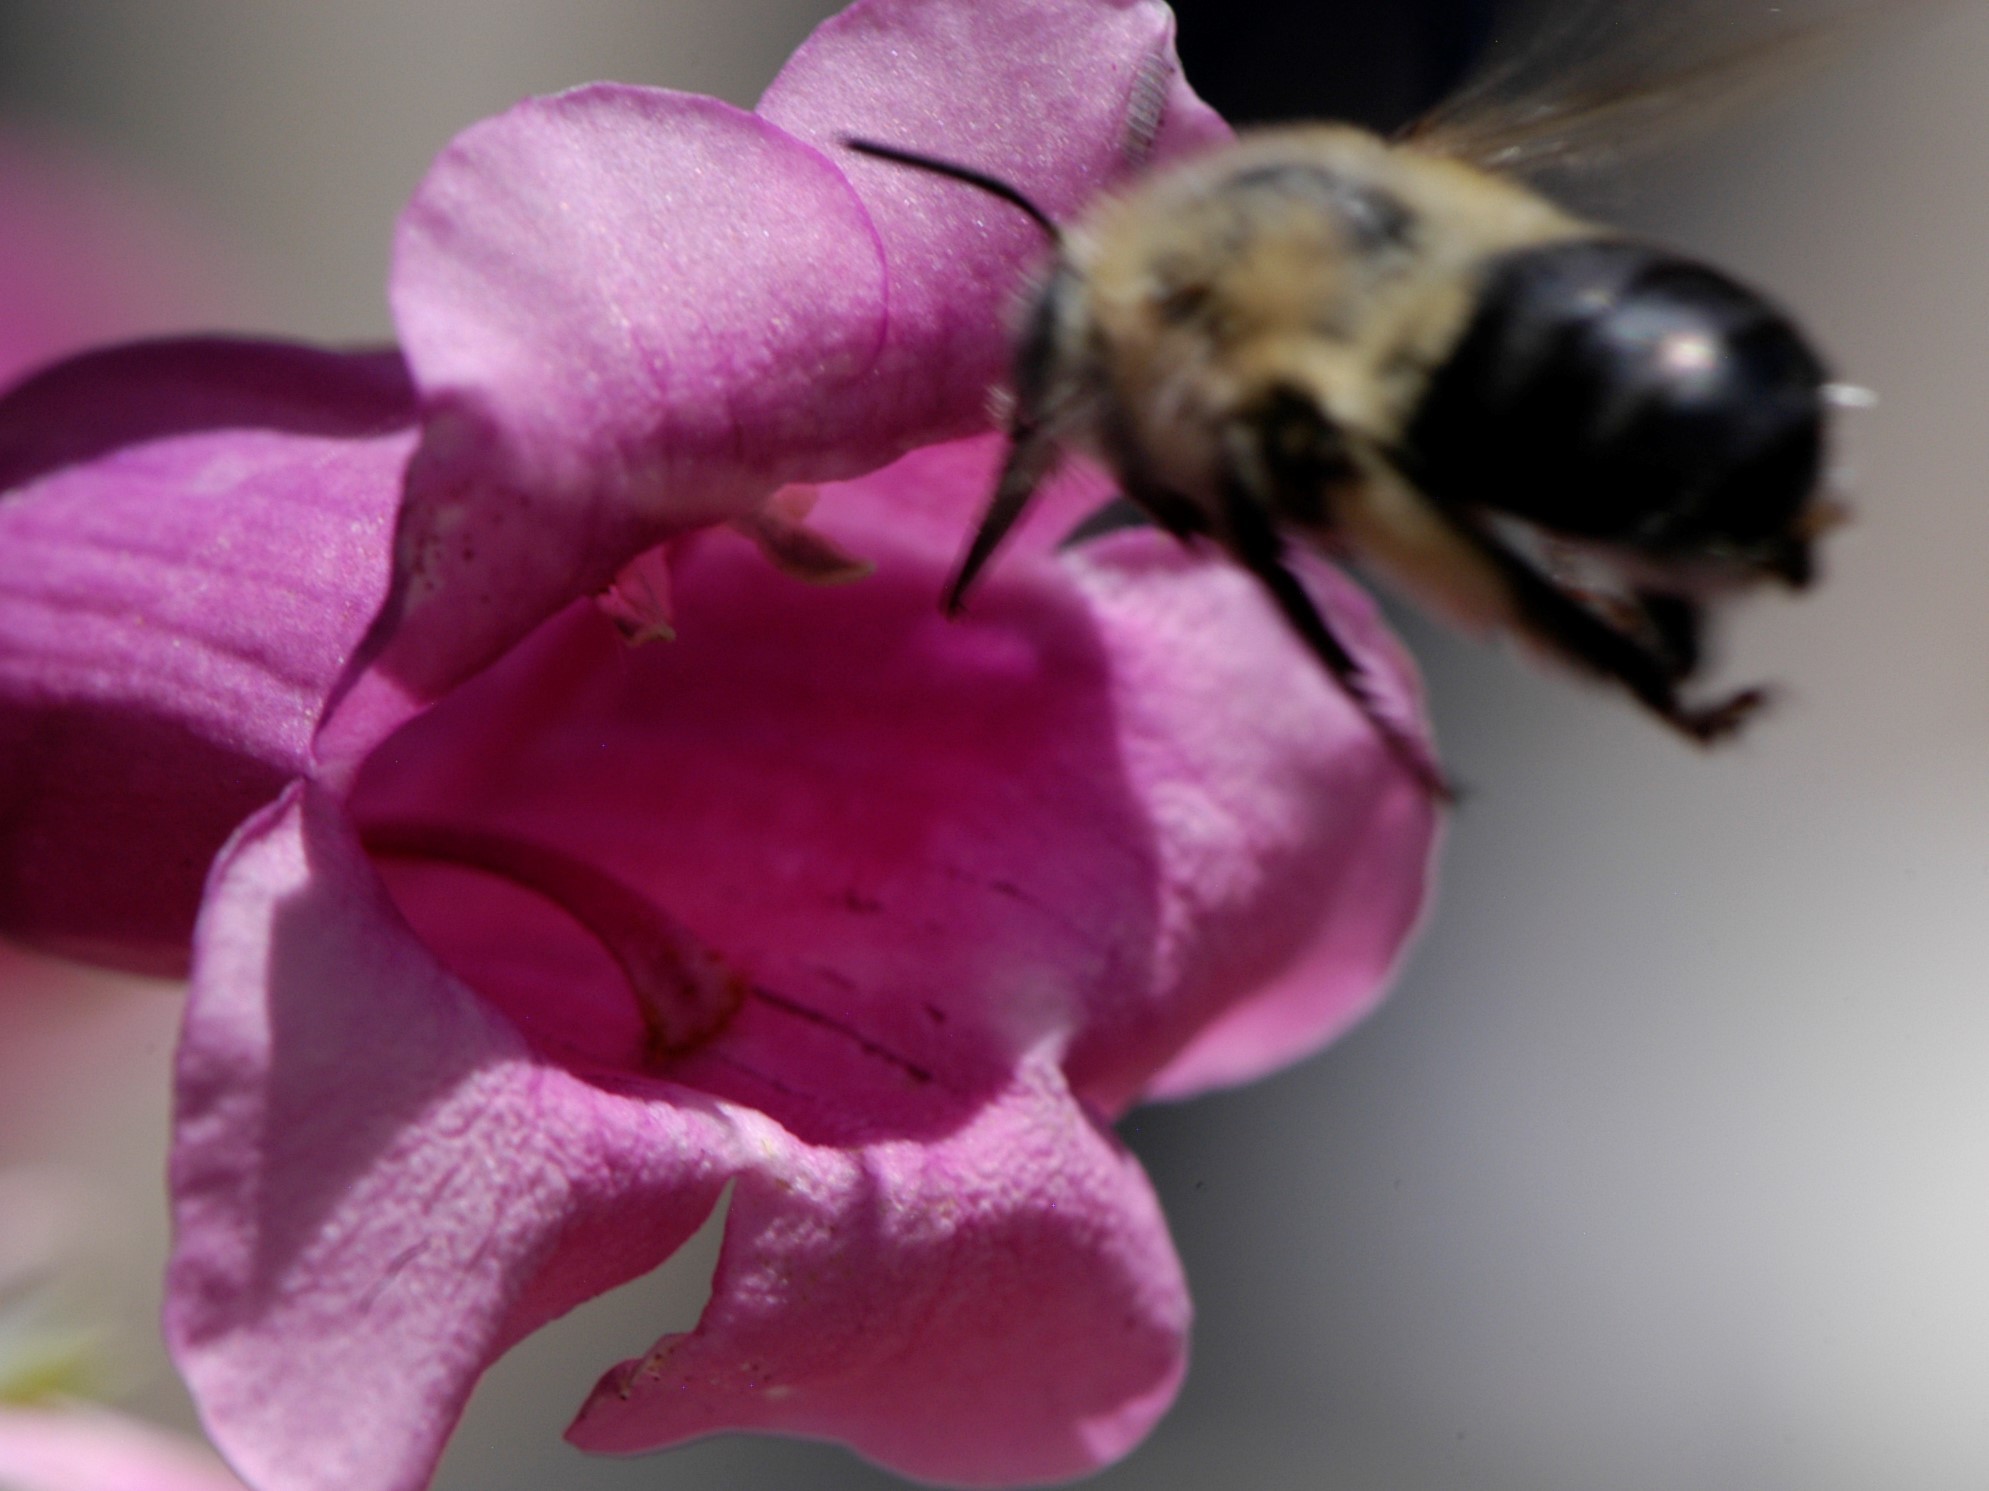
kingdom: Animalia
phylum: Arthropoda
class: Insecta
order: Hymenoptera
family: Apidae
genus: Anthophora
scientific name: Anthophora montana
